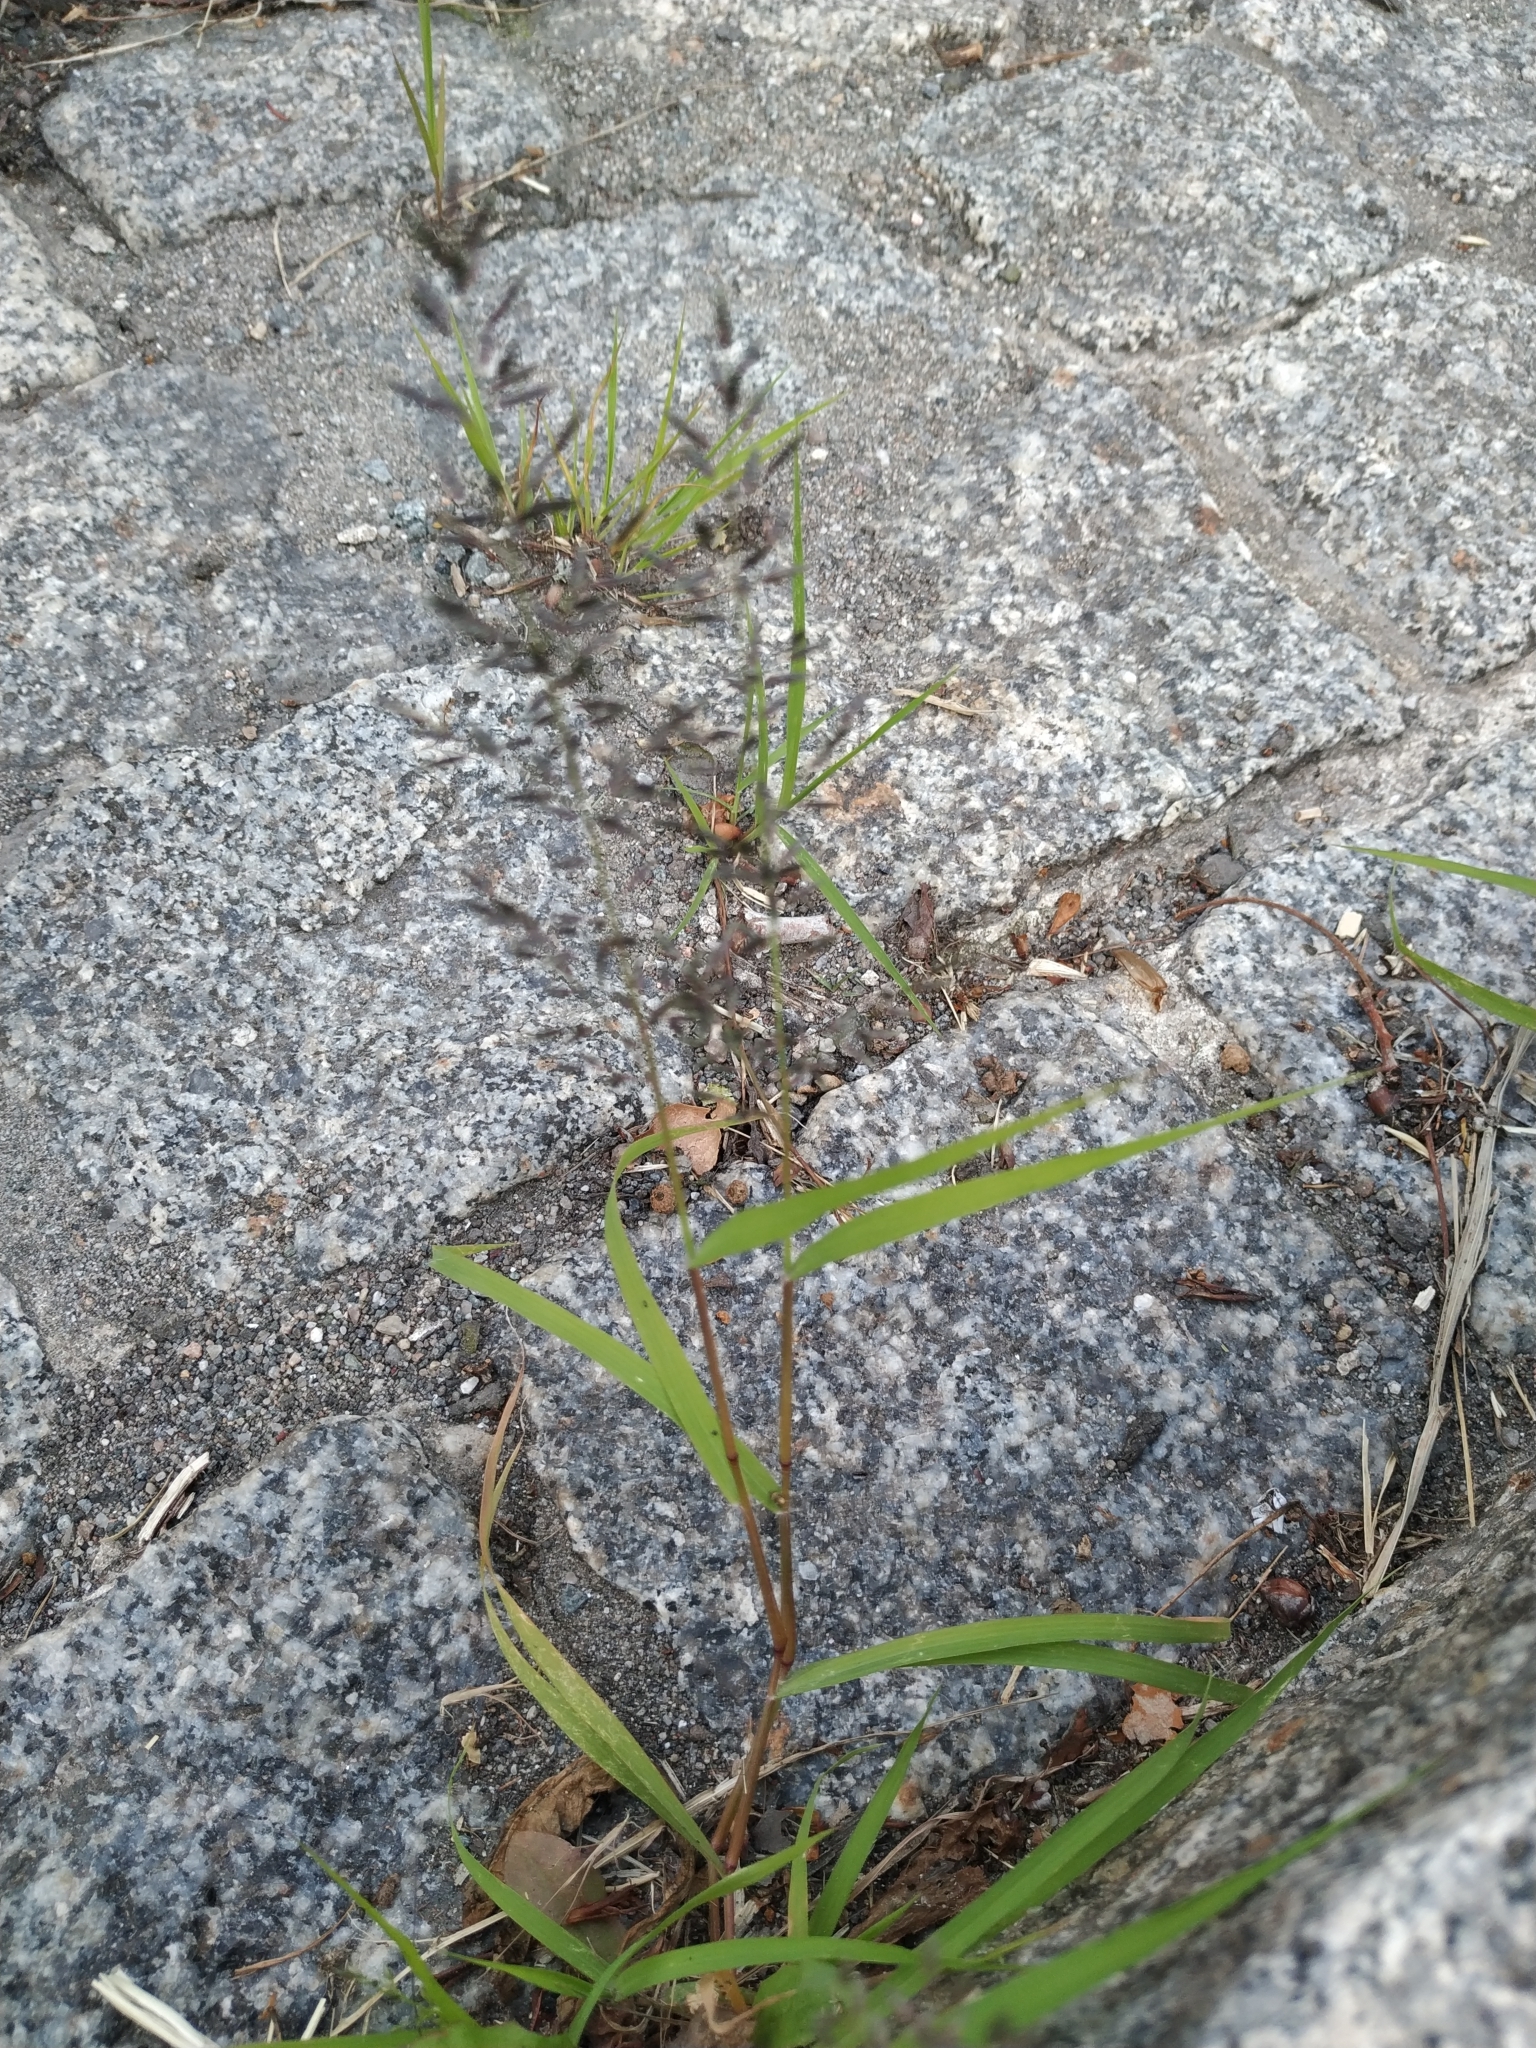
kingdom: Plantae
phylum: Tracheophyta
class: Liliopsida
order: Poales
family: Poaceae
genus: Eragrostis
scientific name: Eragrostis minor
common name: Small love-grass
